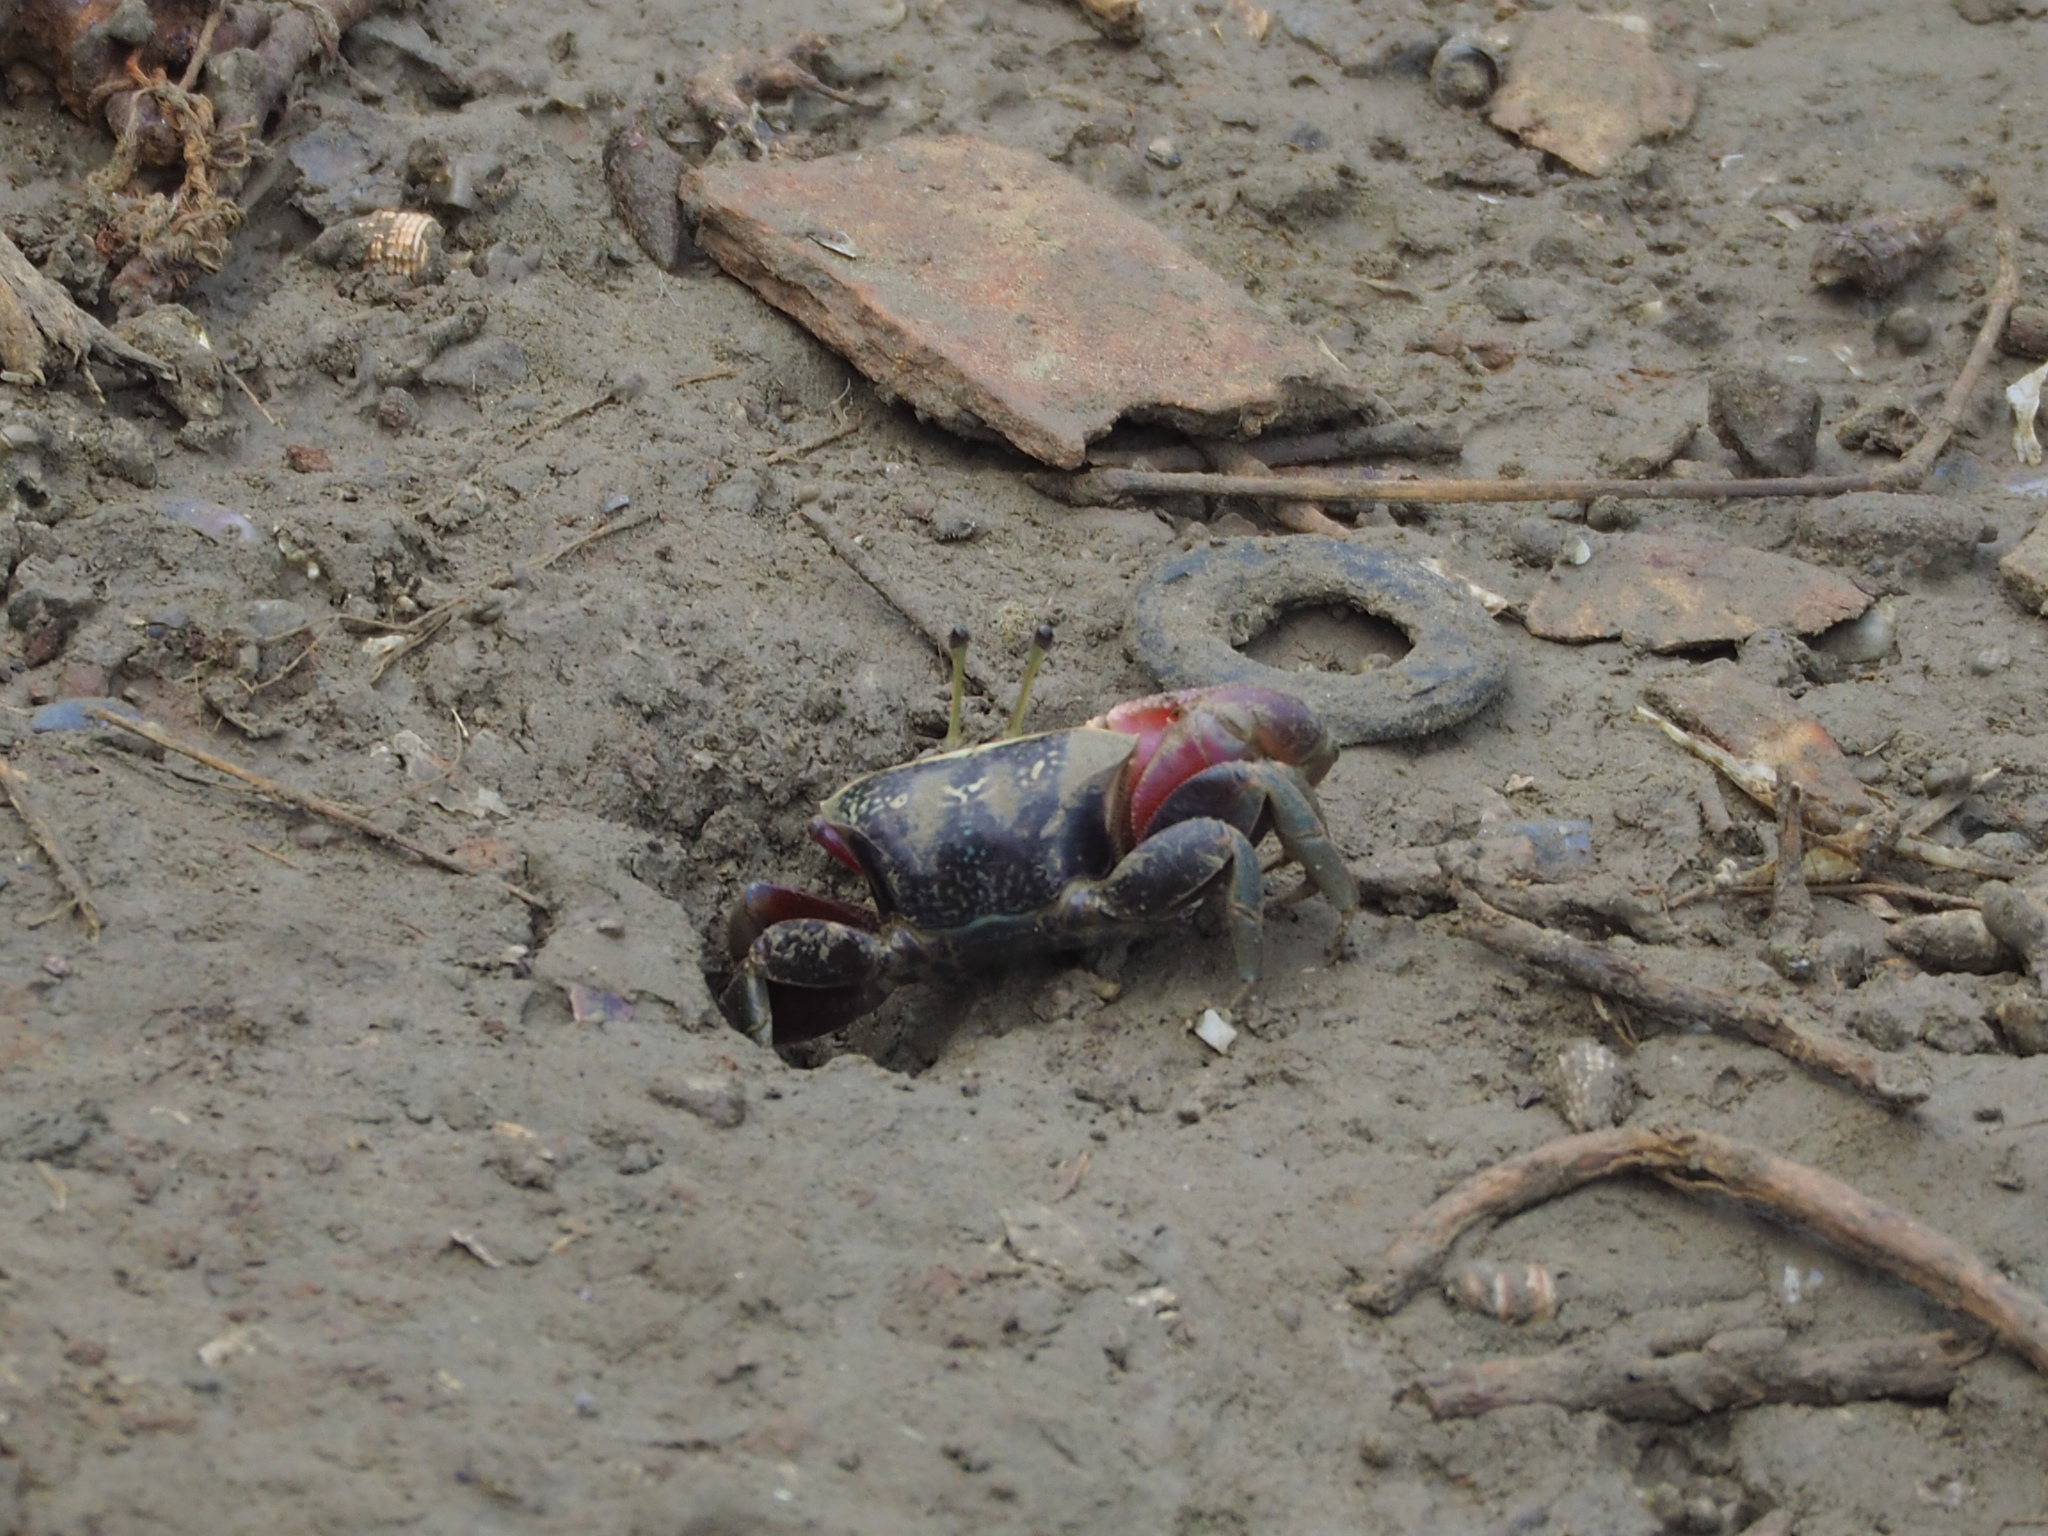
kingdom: Animalia
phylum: Arthropoda
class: Malacostraca
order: Decapoda
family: Ocypodidae
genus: Tubuca
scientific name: Tubuca arcuata
